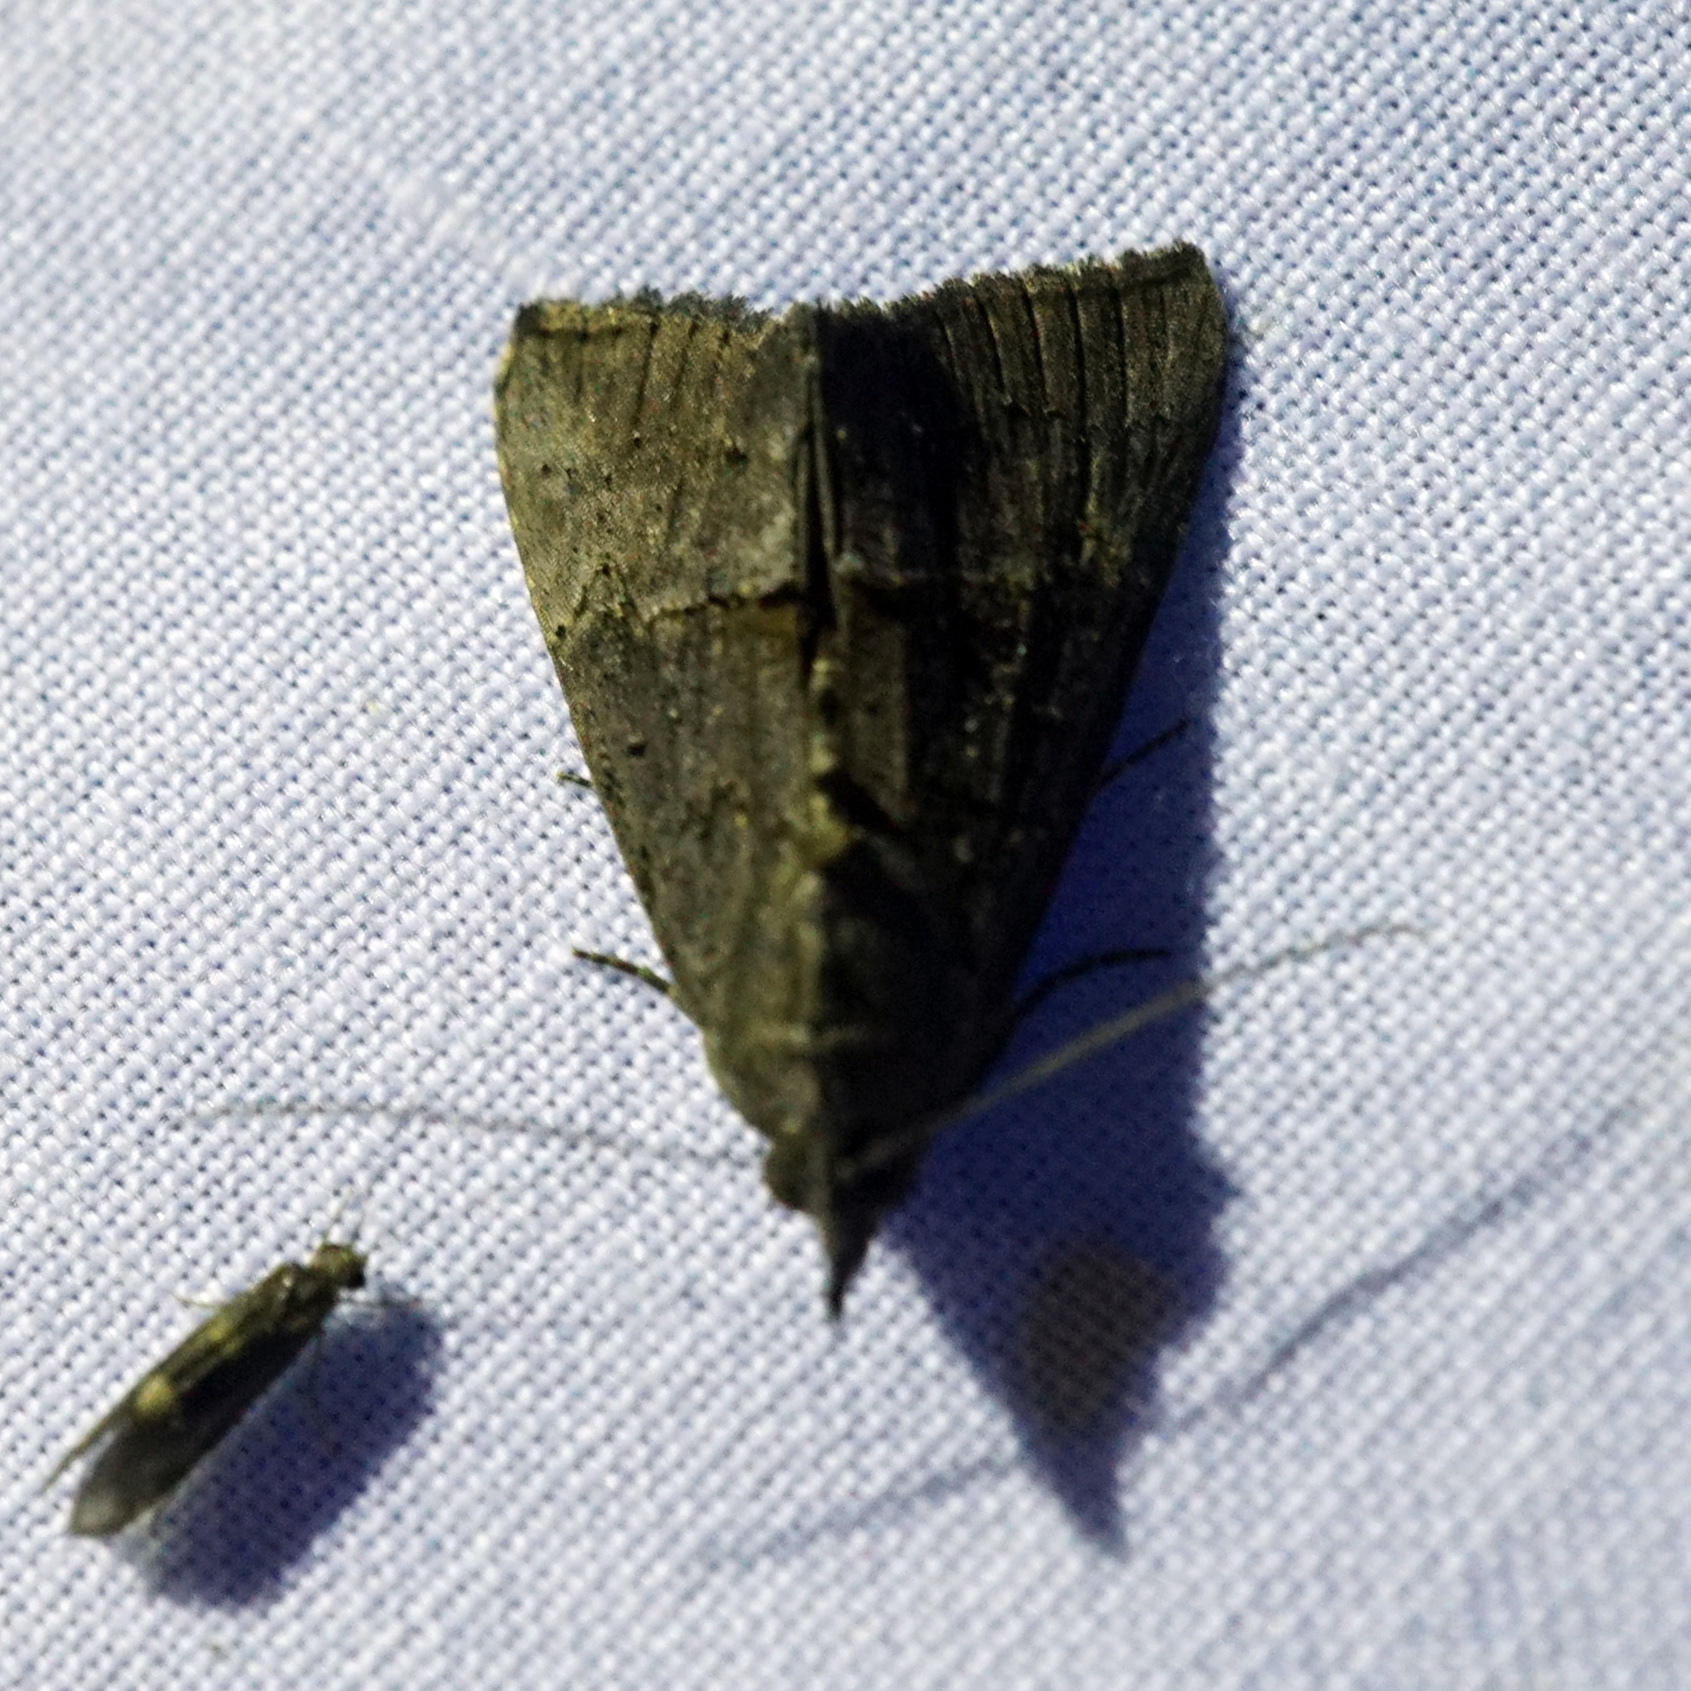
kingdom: Animalia
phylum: Arthropoda
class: Insecta
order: Lepidoptera
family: Erebidae
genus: Hypena
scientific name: Hypena scabra
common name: Green cloverworm
